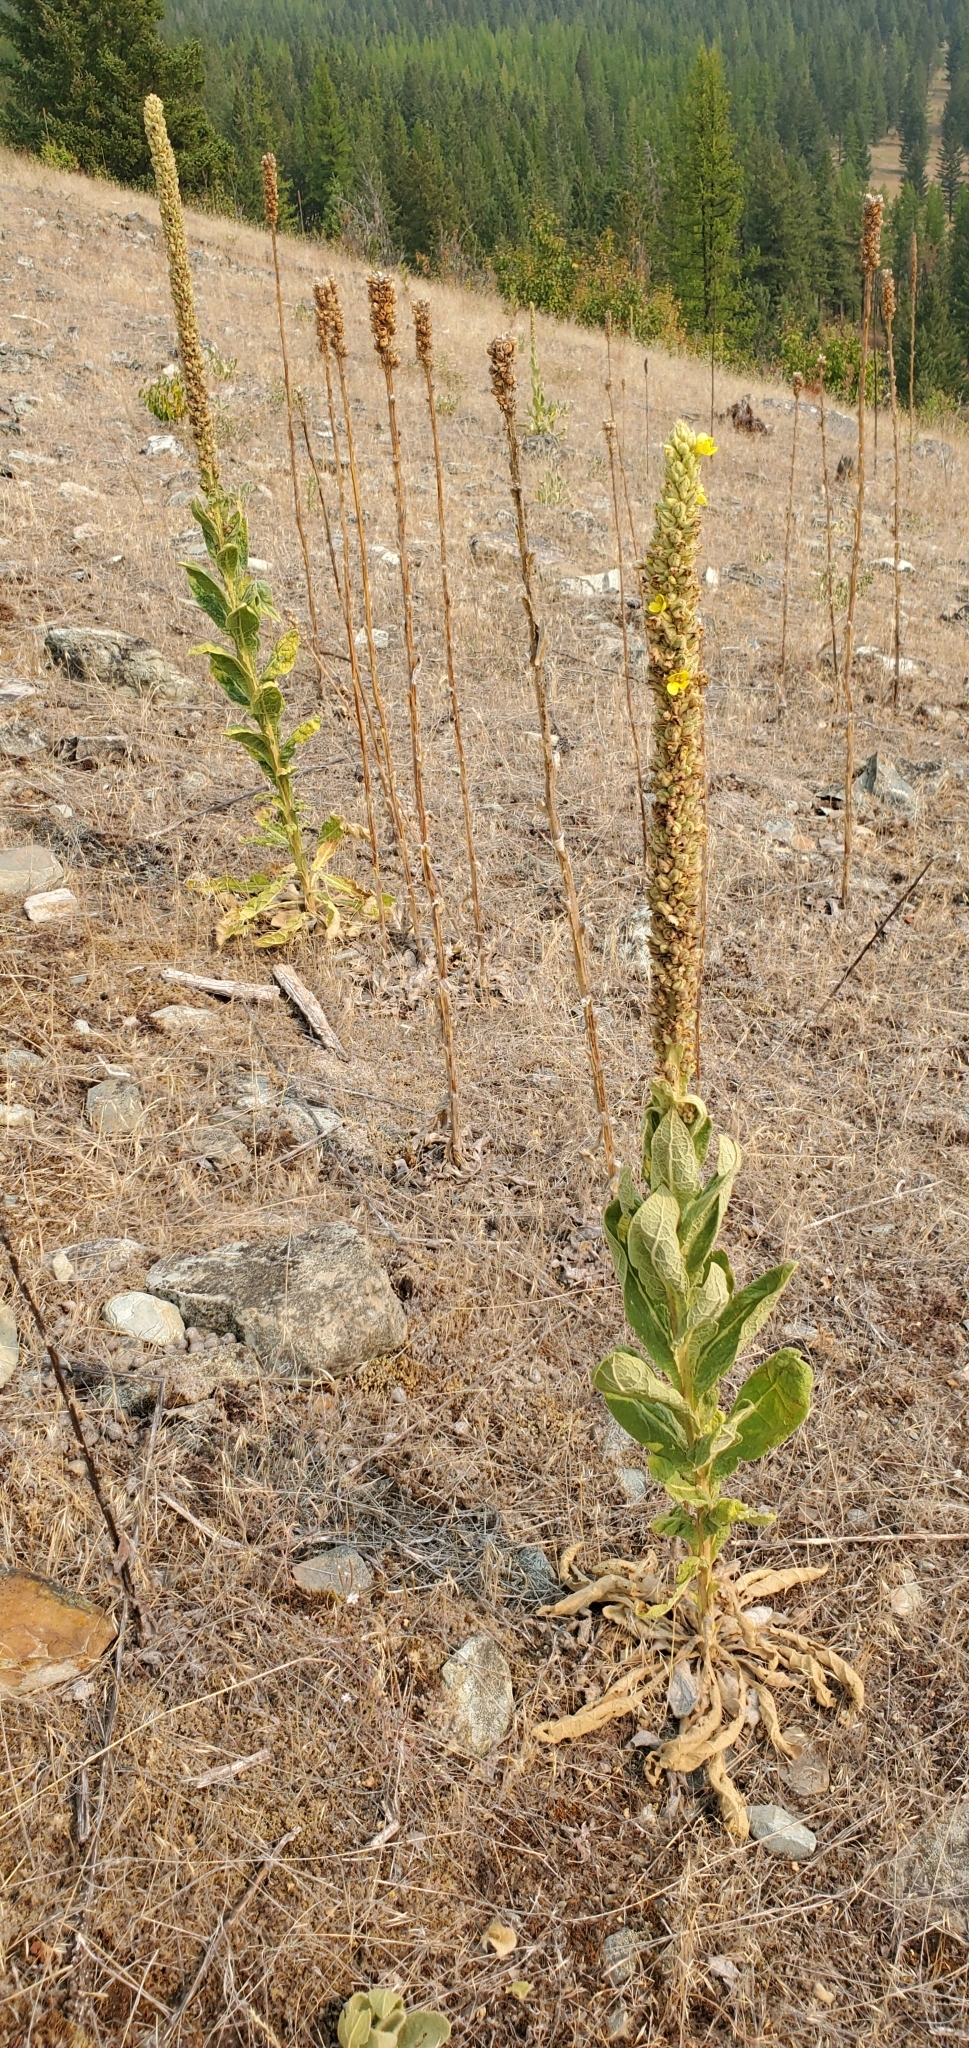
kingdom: Plantae
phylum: Tracheophyta
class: Magnoliopsida
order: Lamiales
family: Scrophulariaceae
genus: Verbascum
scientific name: Verbascum thapsus
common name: Common mullein
